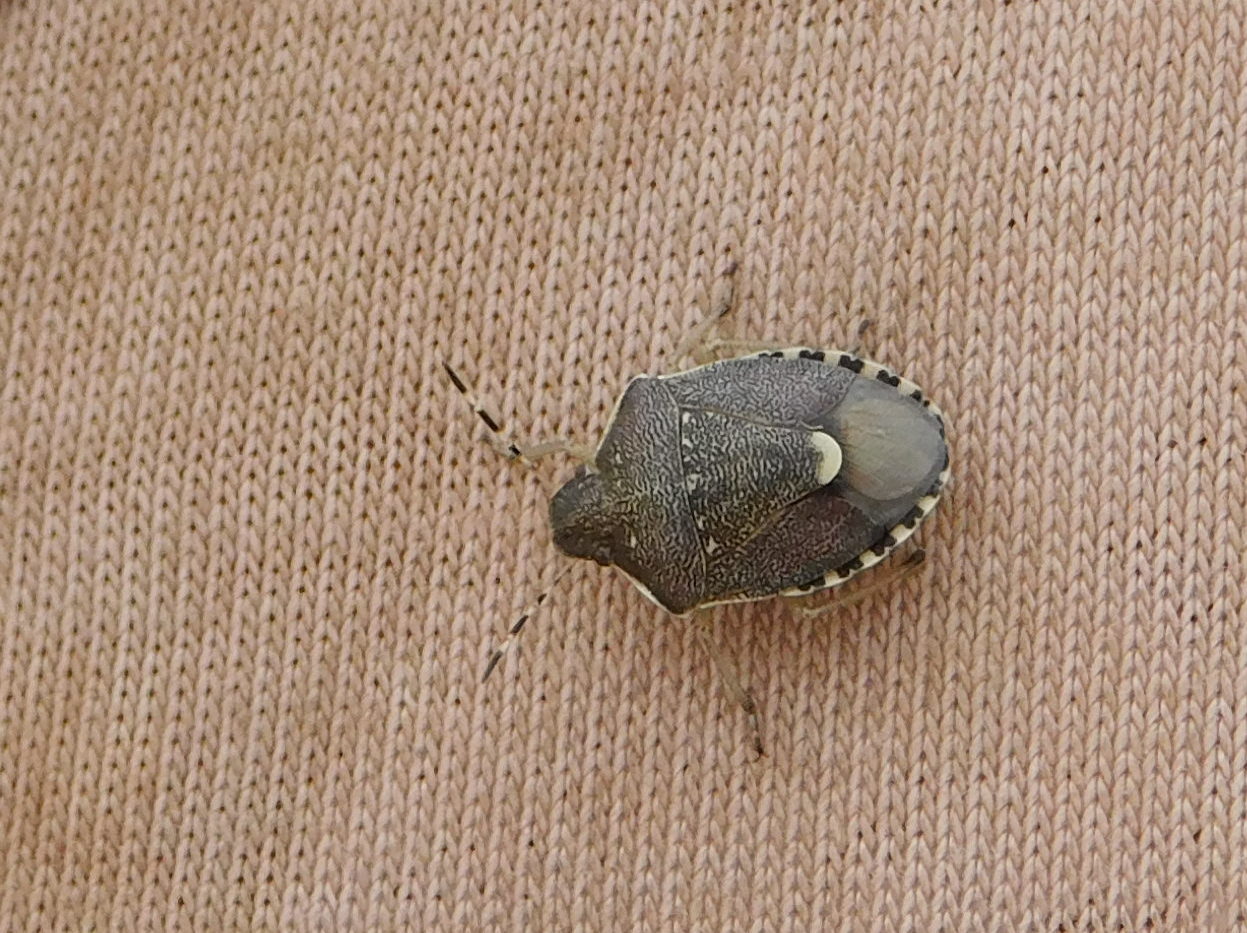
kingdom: Animalia
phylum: Arthropoda
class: Insecta
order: Hemiptera
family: Pentatomidae
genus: Holcostethus
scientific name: Holcostethus sphacelatus
